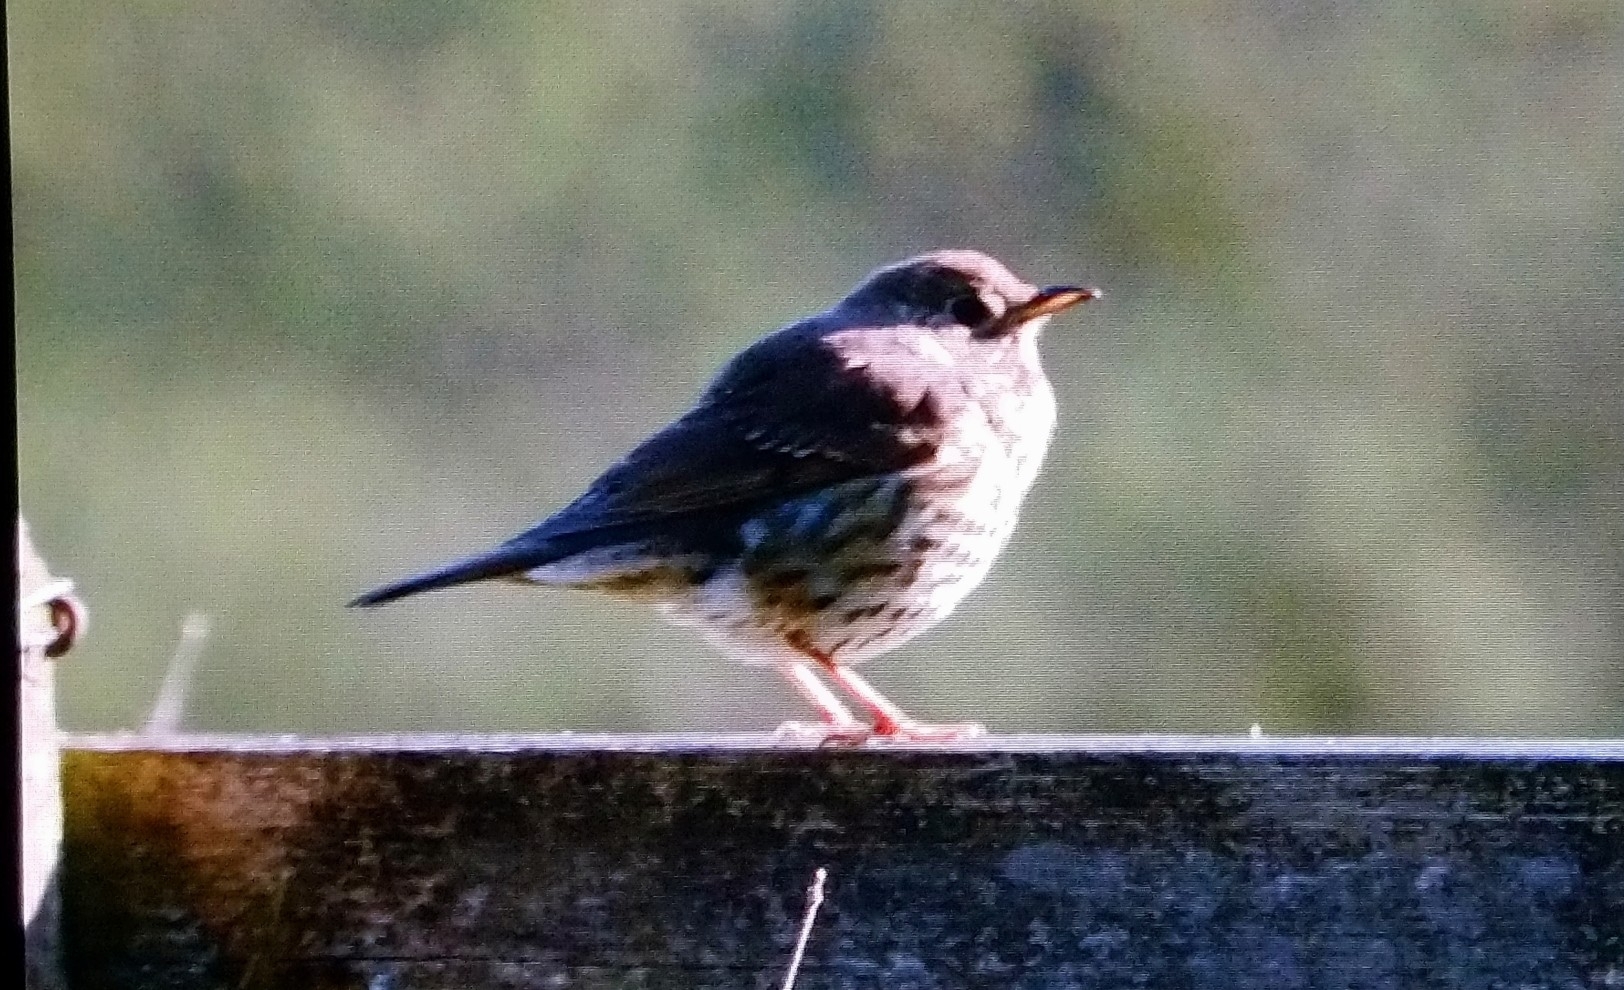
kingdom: Animalia
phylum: Chordata
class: Aves
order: Passeriformes
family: Turdidae
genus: Turdus
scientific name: Turdus philomelos
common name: Song thrush
